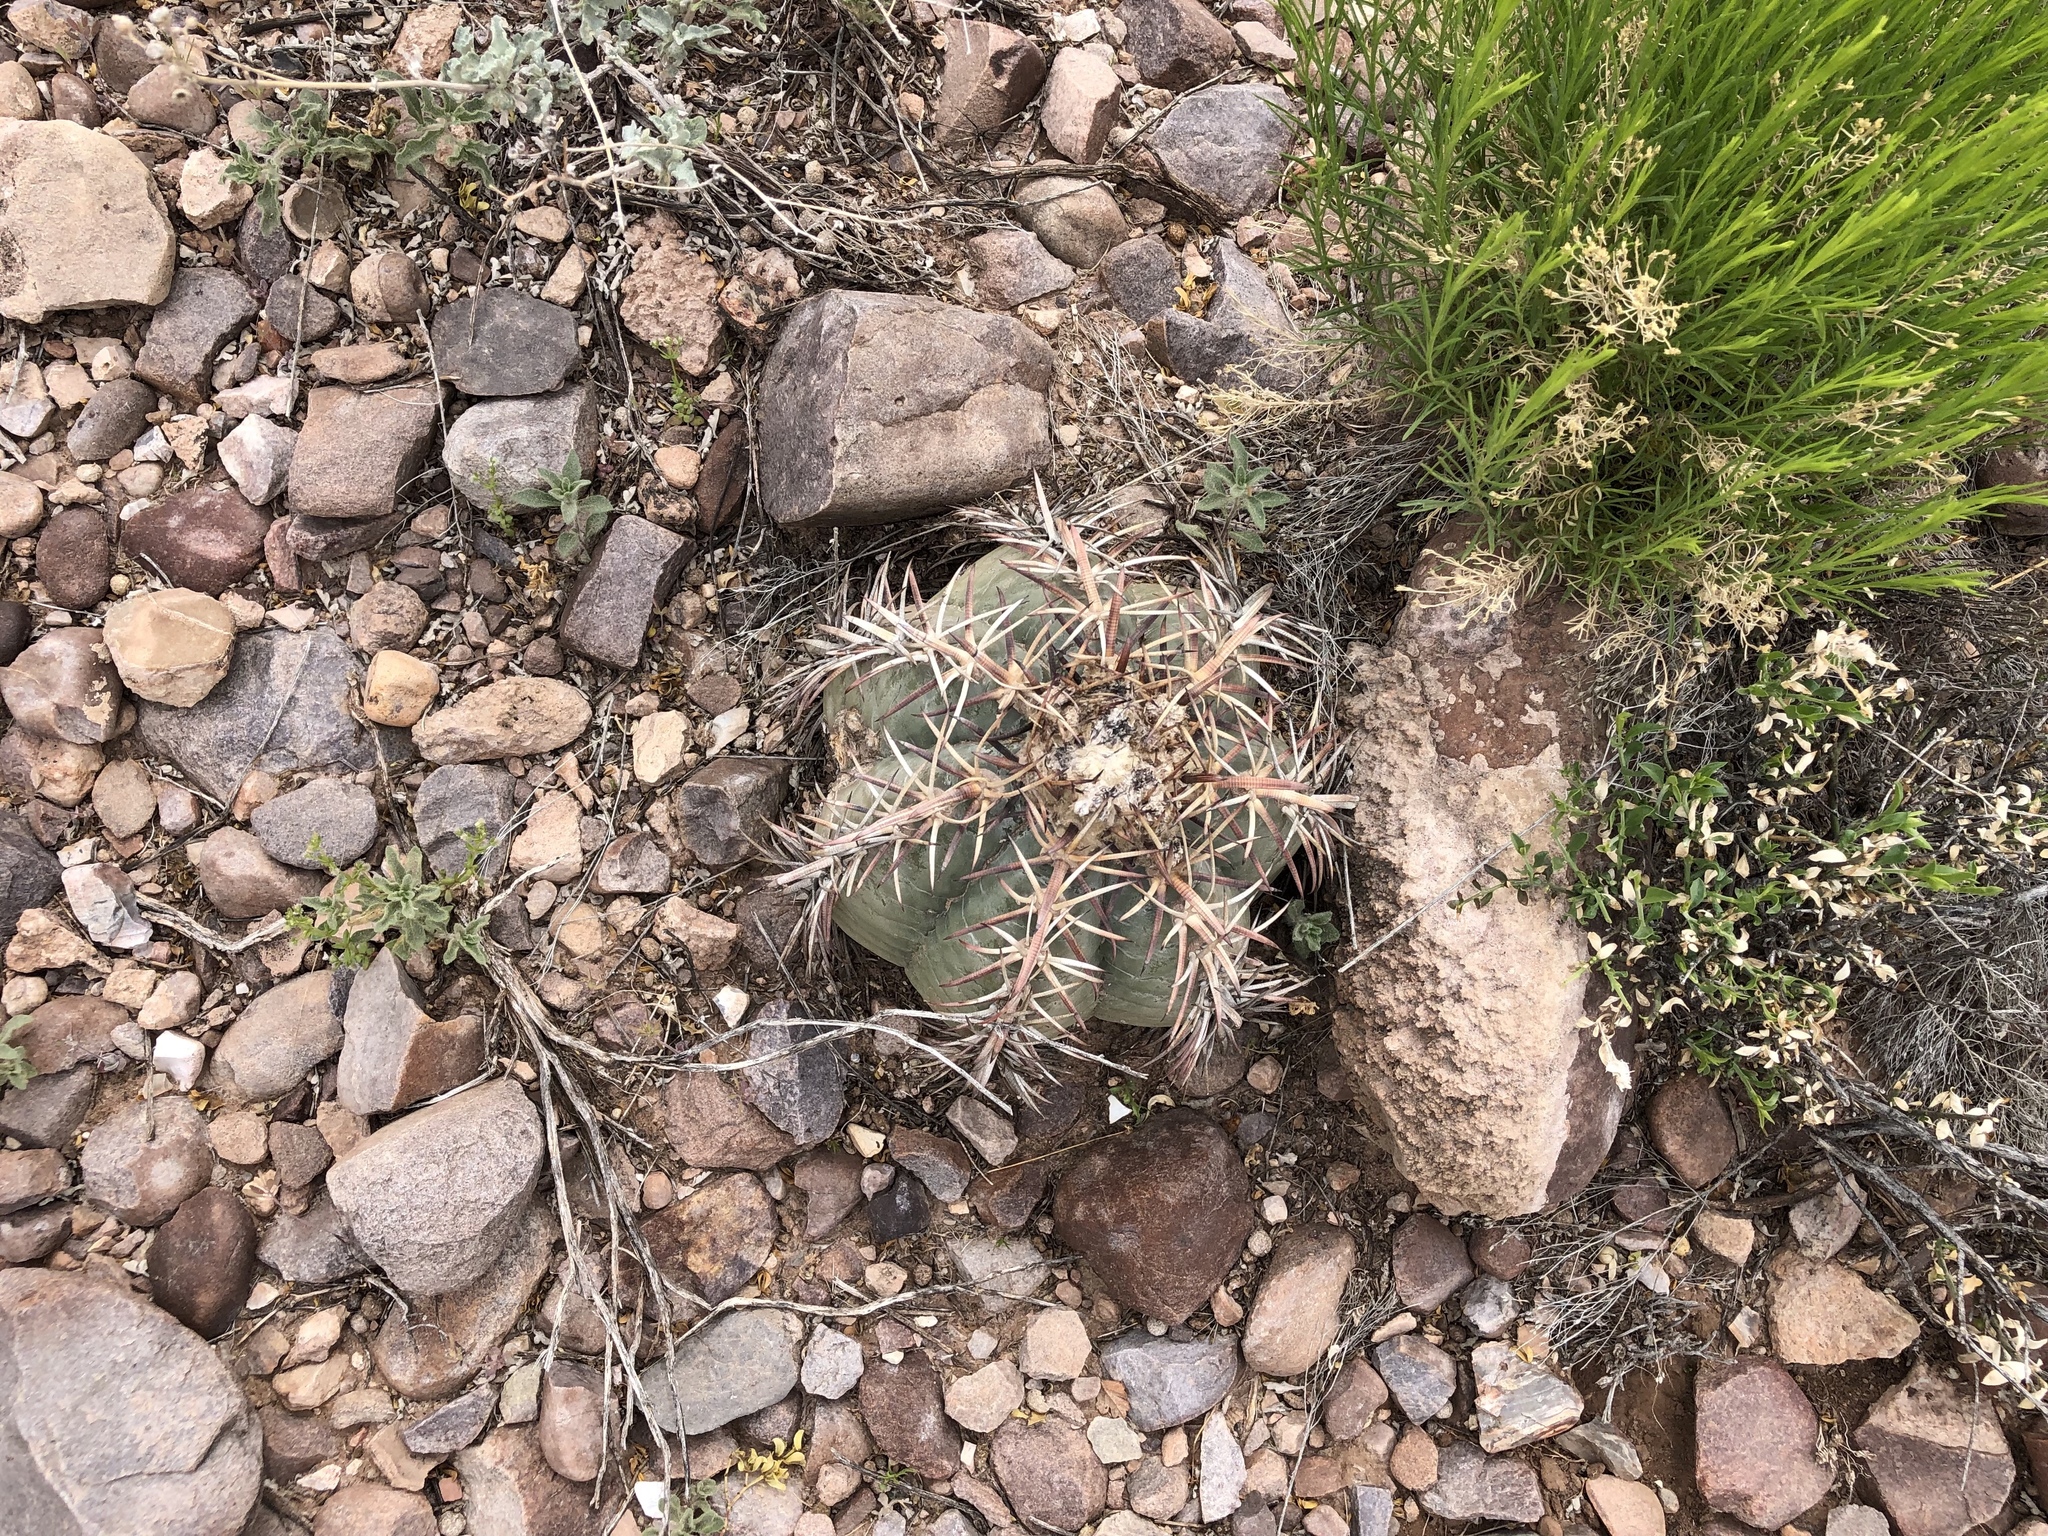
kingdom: Plantae
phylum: Tracheophyta
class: Magnoliopsida
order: Caryophyllales
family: Cactaceae
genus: Echinocactus
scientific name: Echinocactus horizonthalonius
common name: Devilshead
